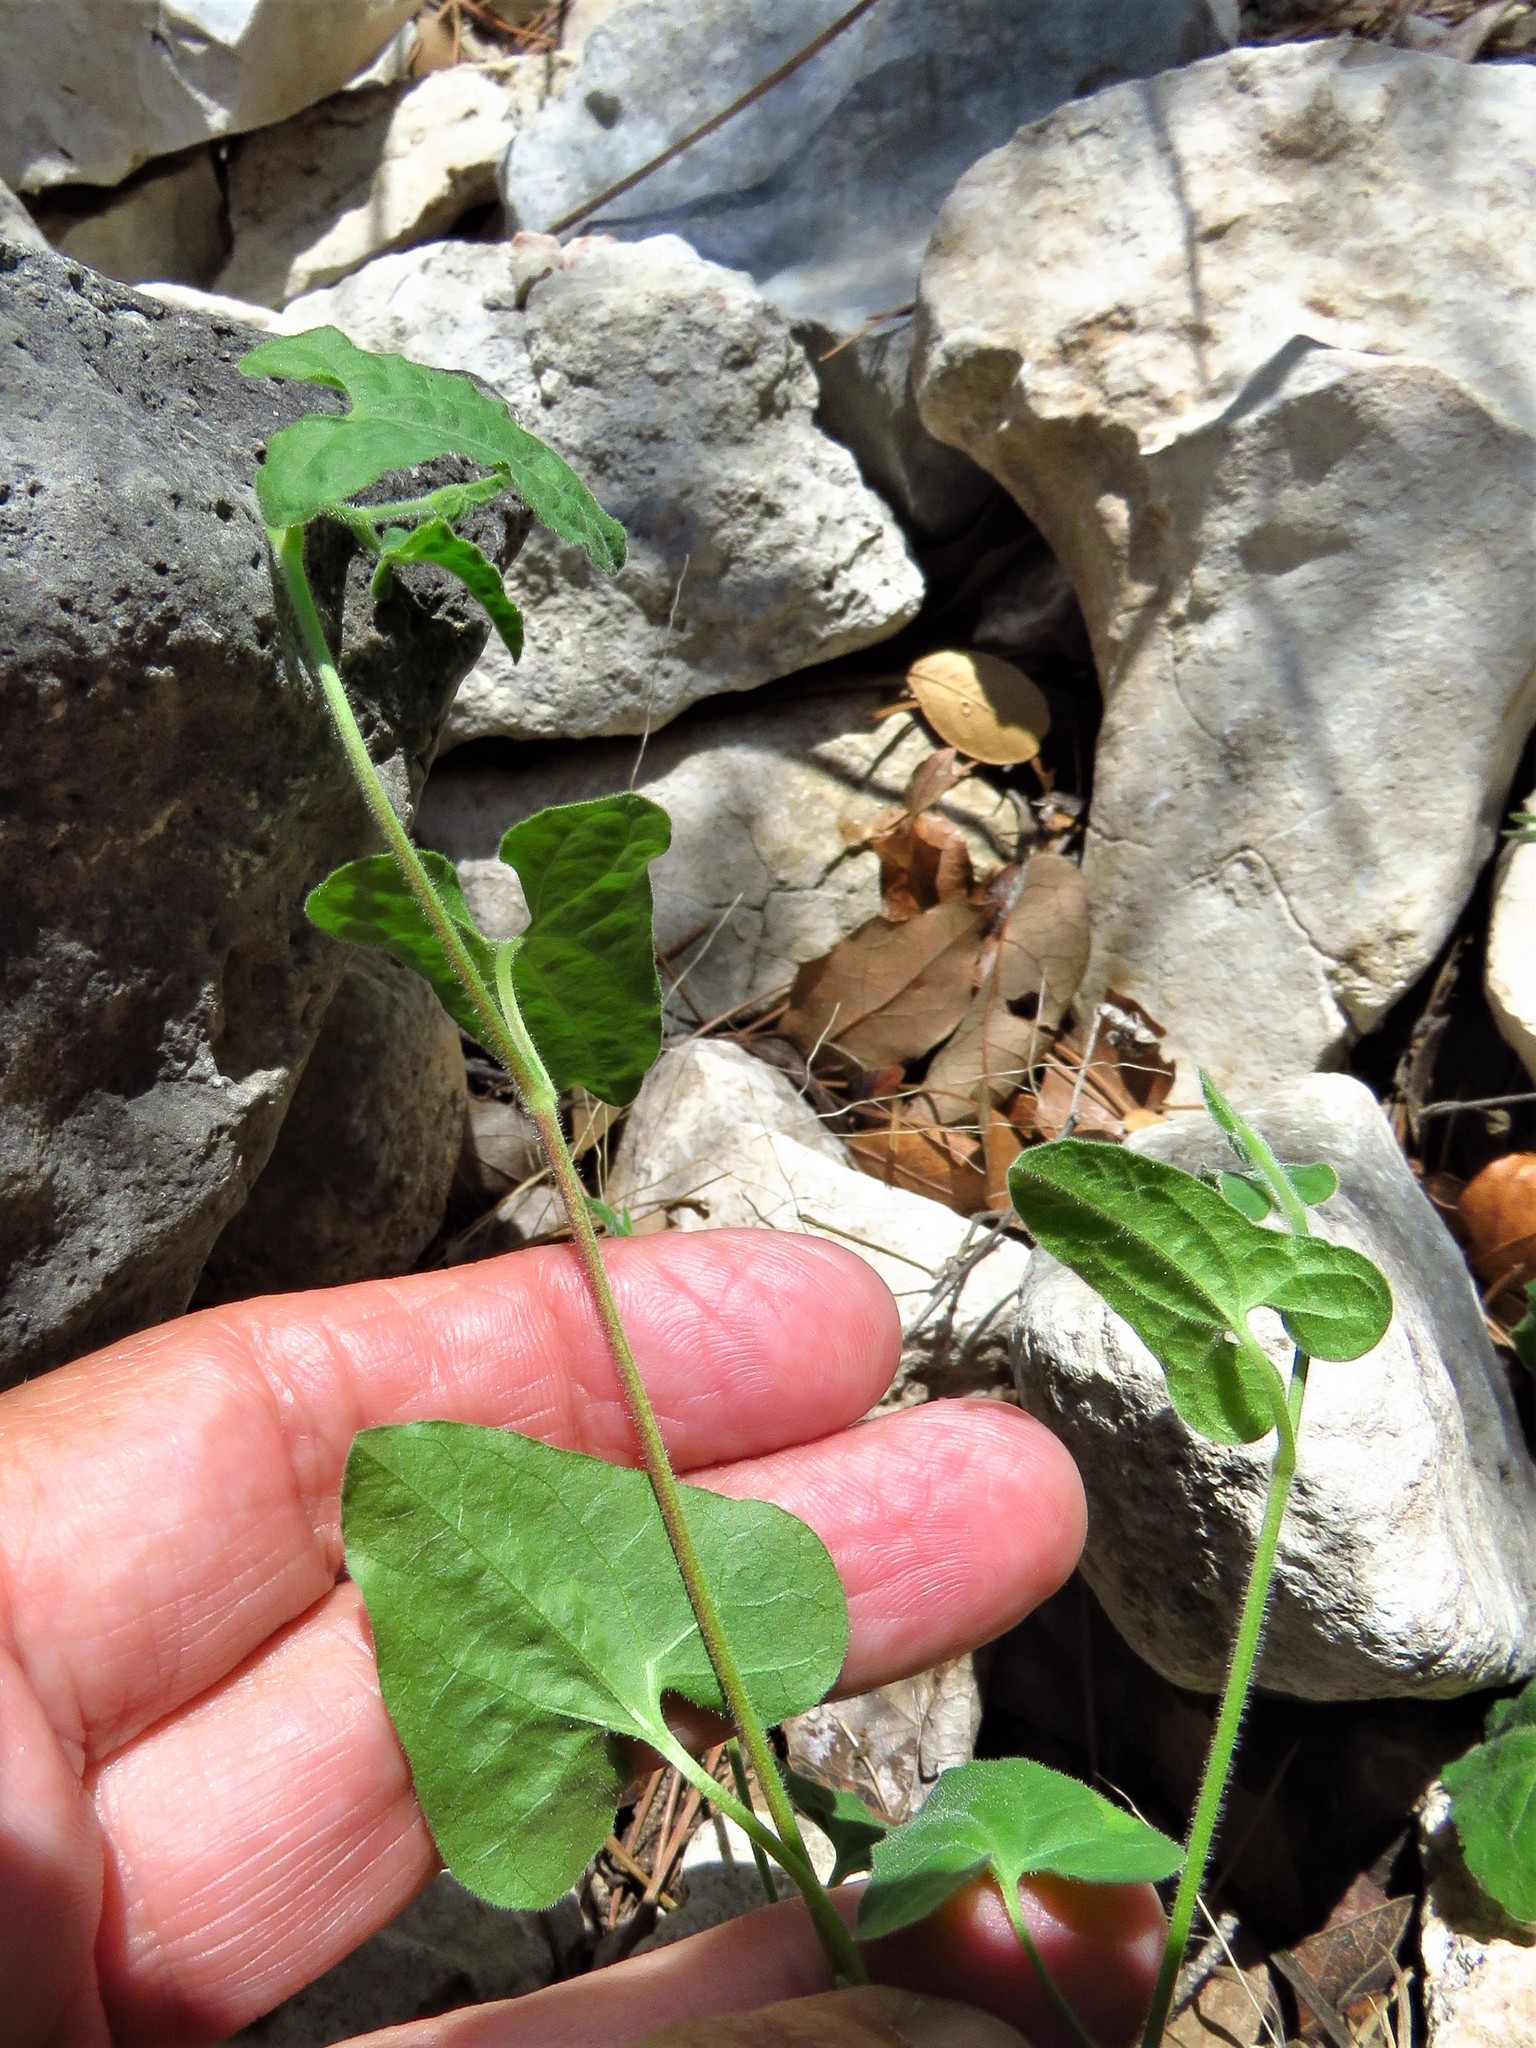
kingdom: Plantae
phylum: Tracheophyta
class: Magnoliopsida
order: Piperales
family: Aristolochiaceae
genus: Aristolochia
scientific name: Aristolochia coryi
